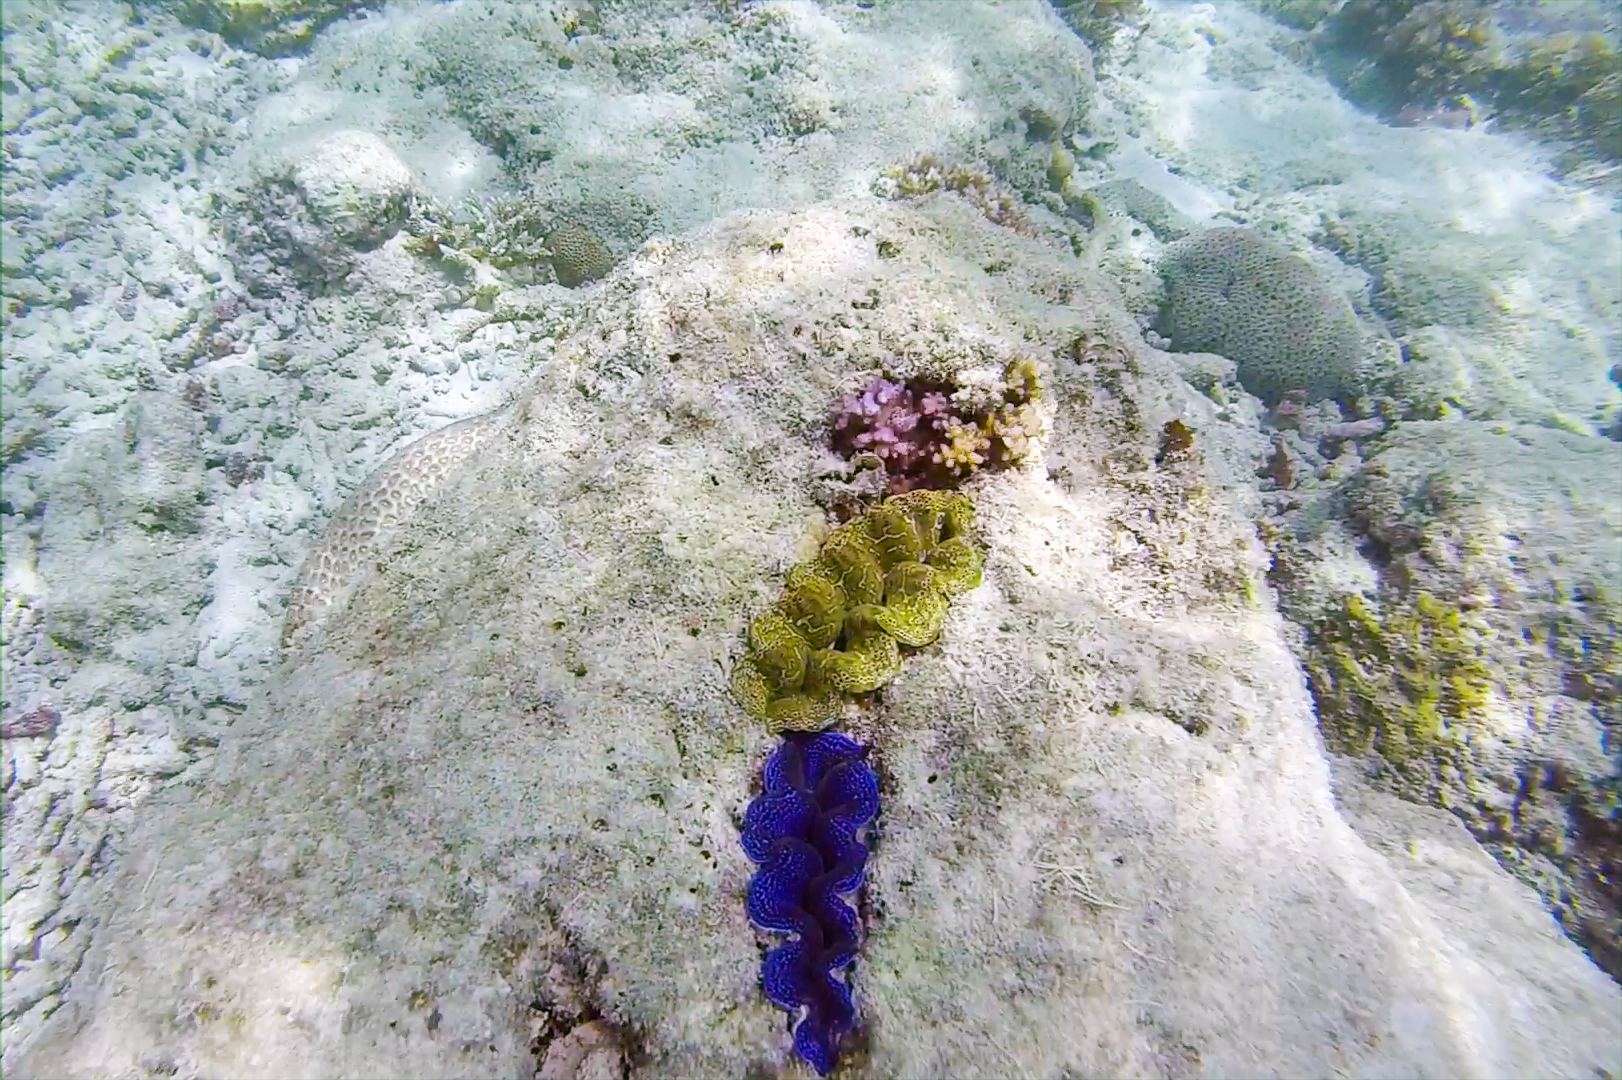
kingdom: Animalia
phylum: Mollusca
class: Bivalvia
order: Cardiida
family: Cardiidae
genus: Tridacna
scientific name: Tridacna crocea
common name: Boring clam
